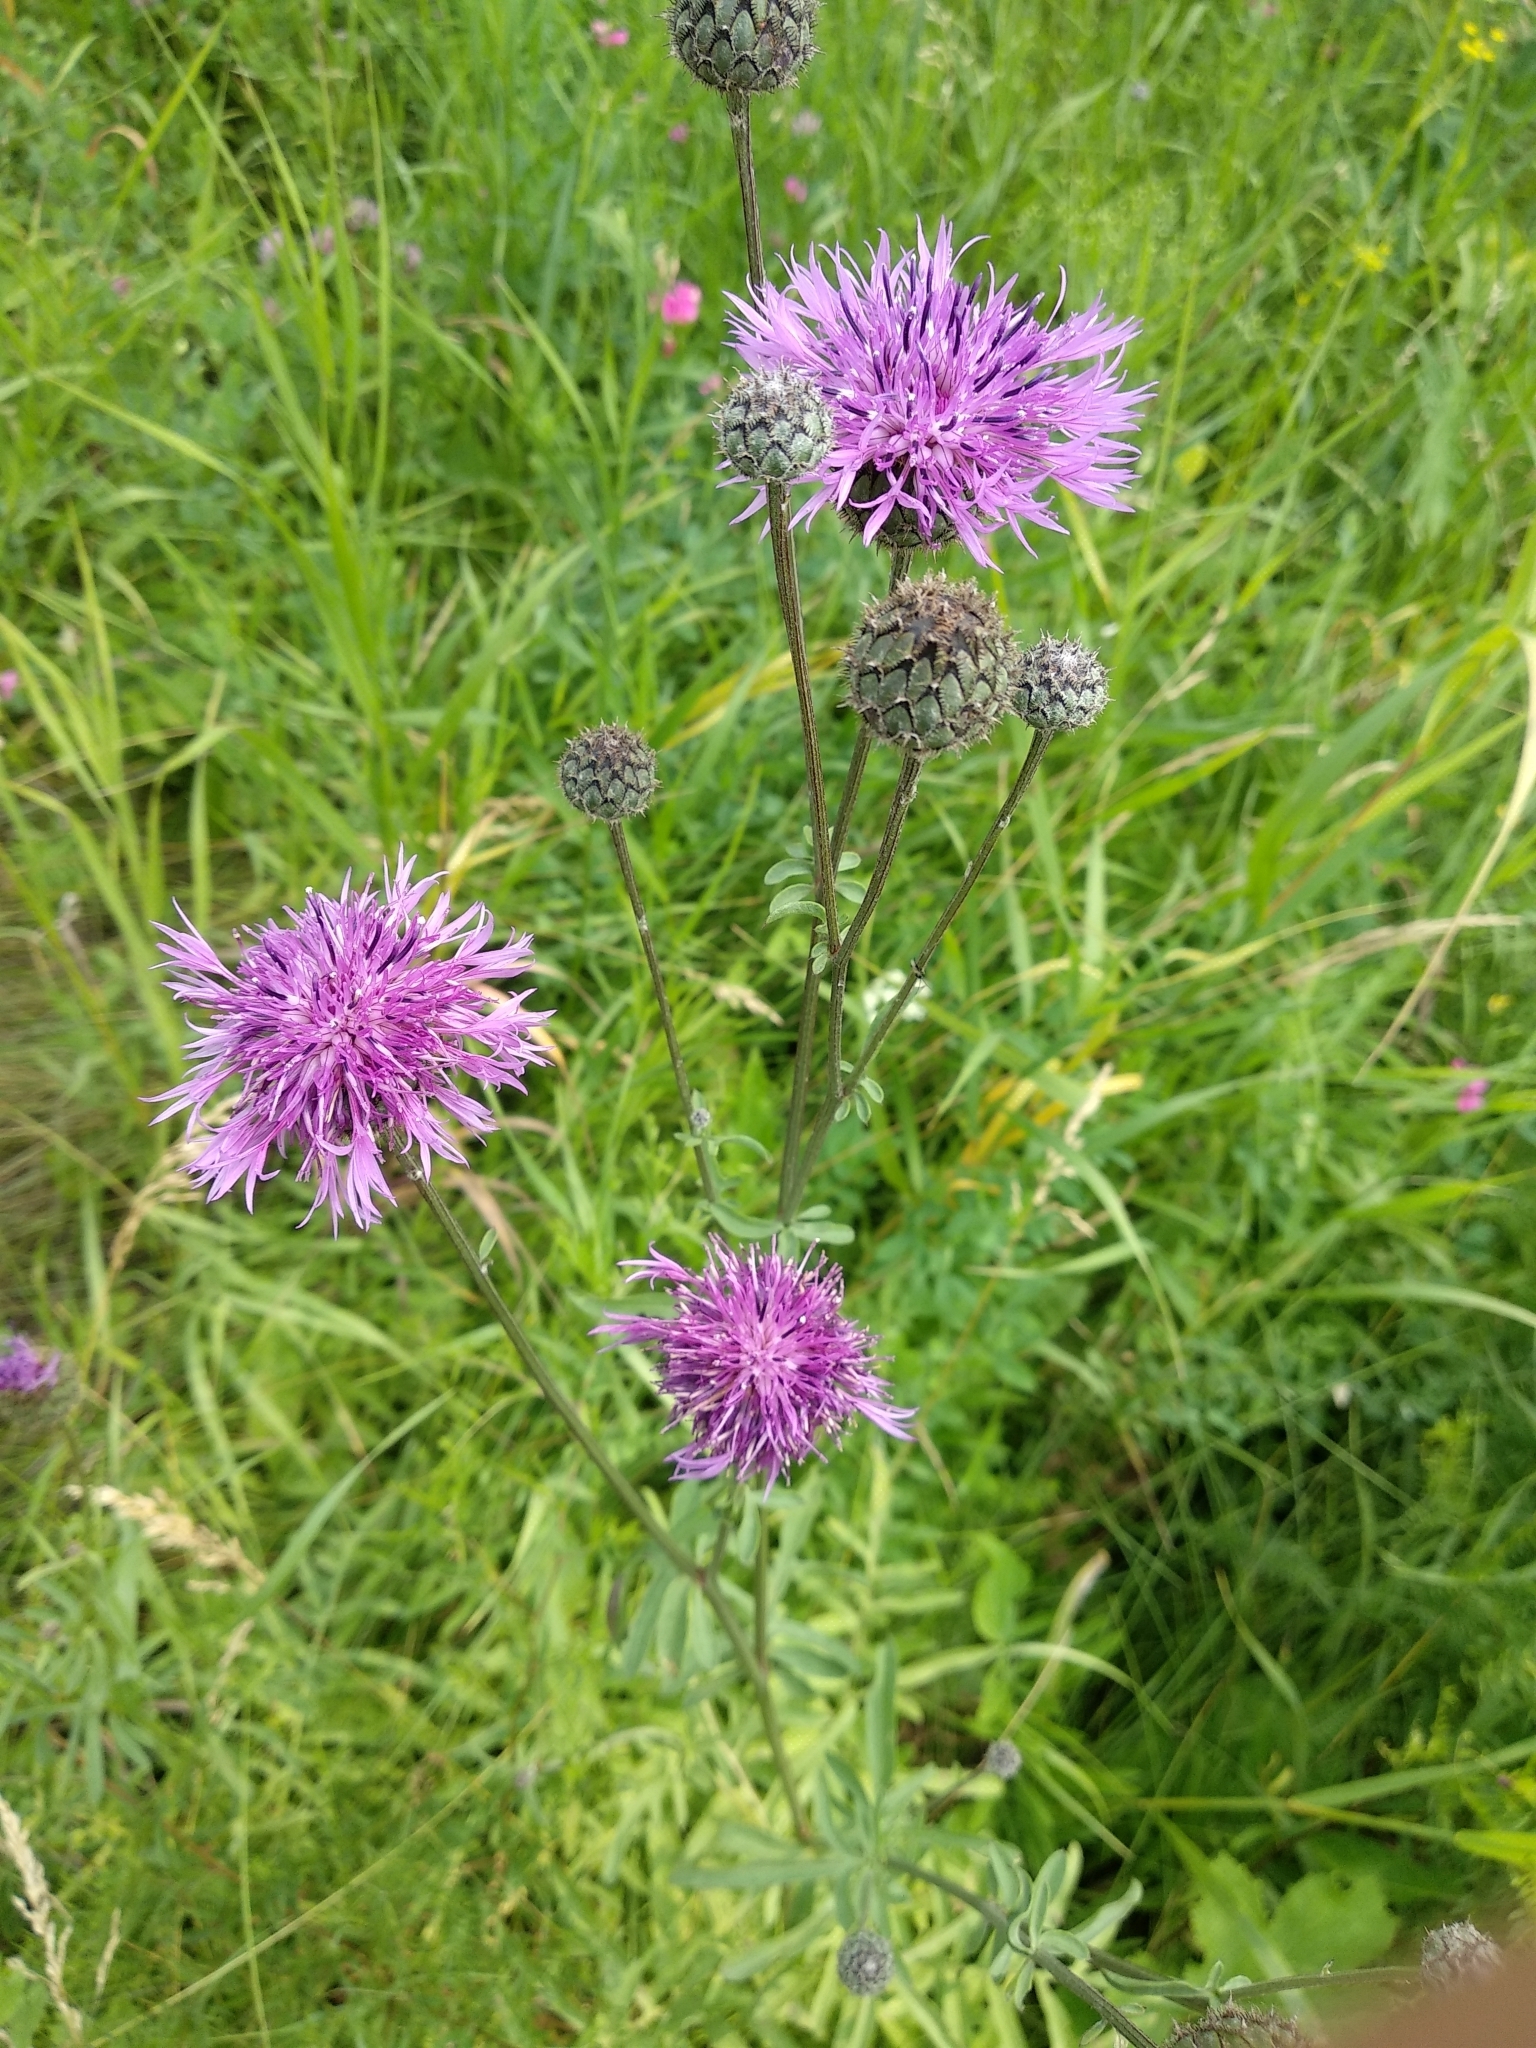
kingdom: Plantae
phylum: Tracheophyta
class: Magnoliopsida
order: Asterales
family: Asteraceae
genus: Centaurea
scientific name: Centaurea scabiosa
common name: Greater knapweed
